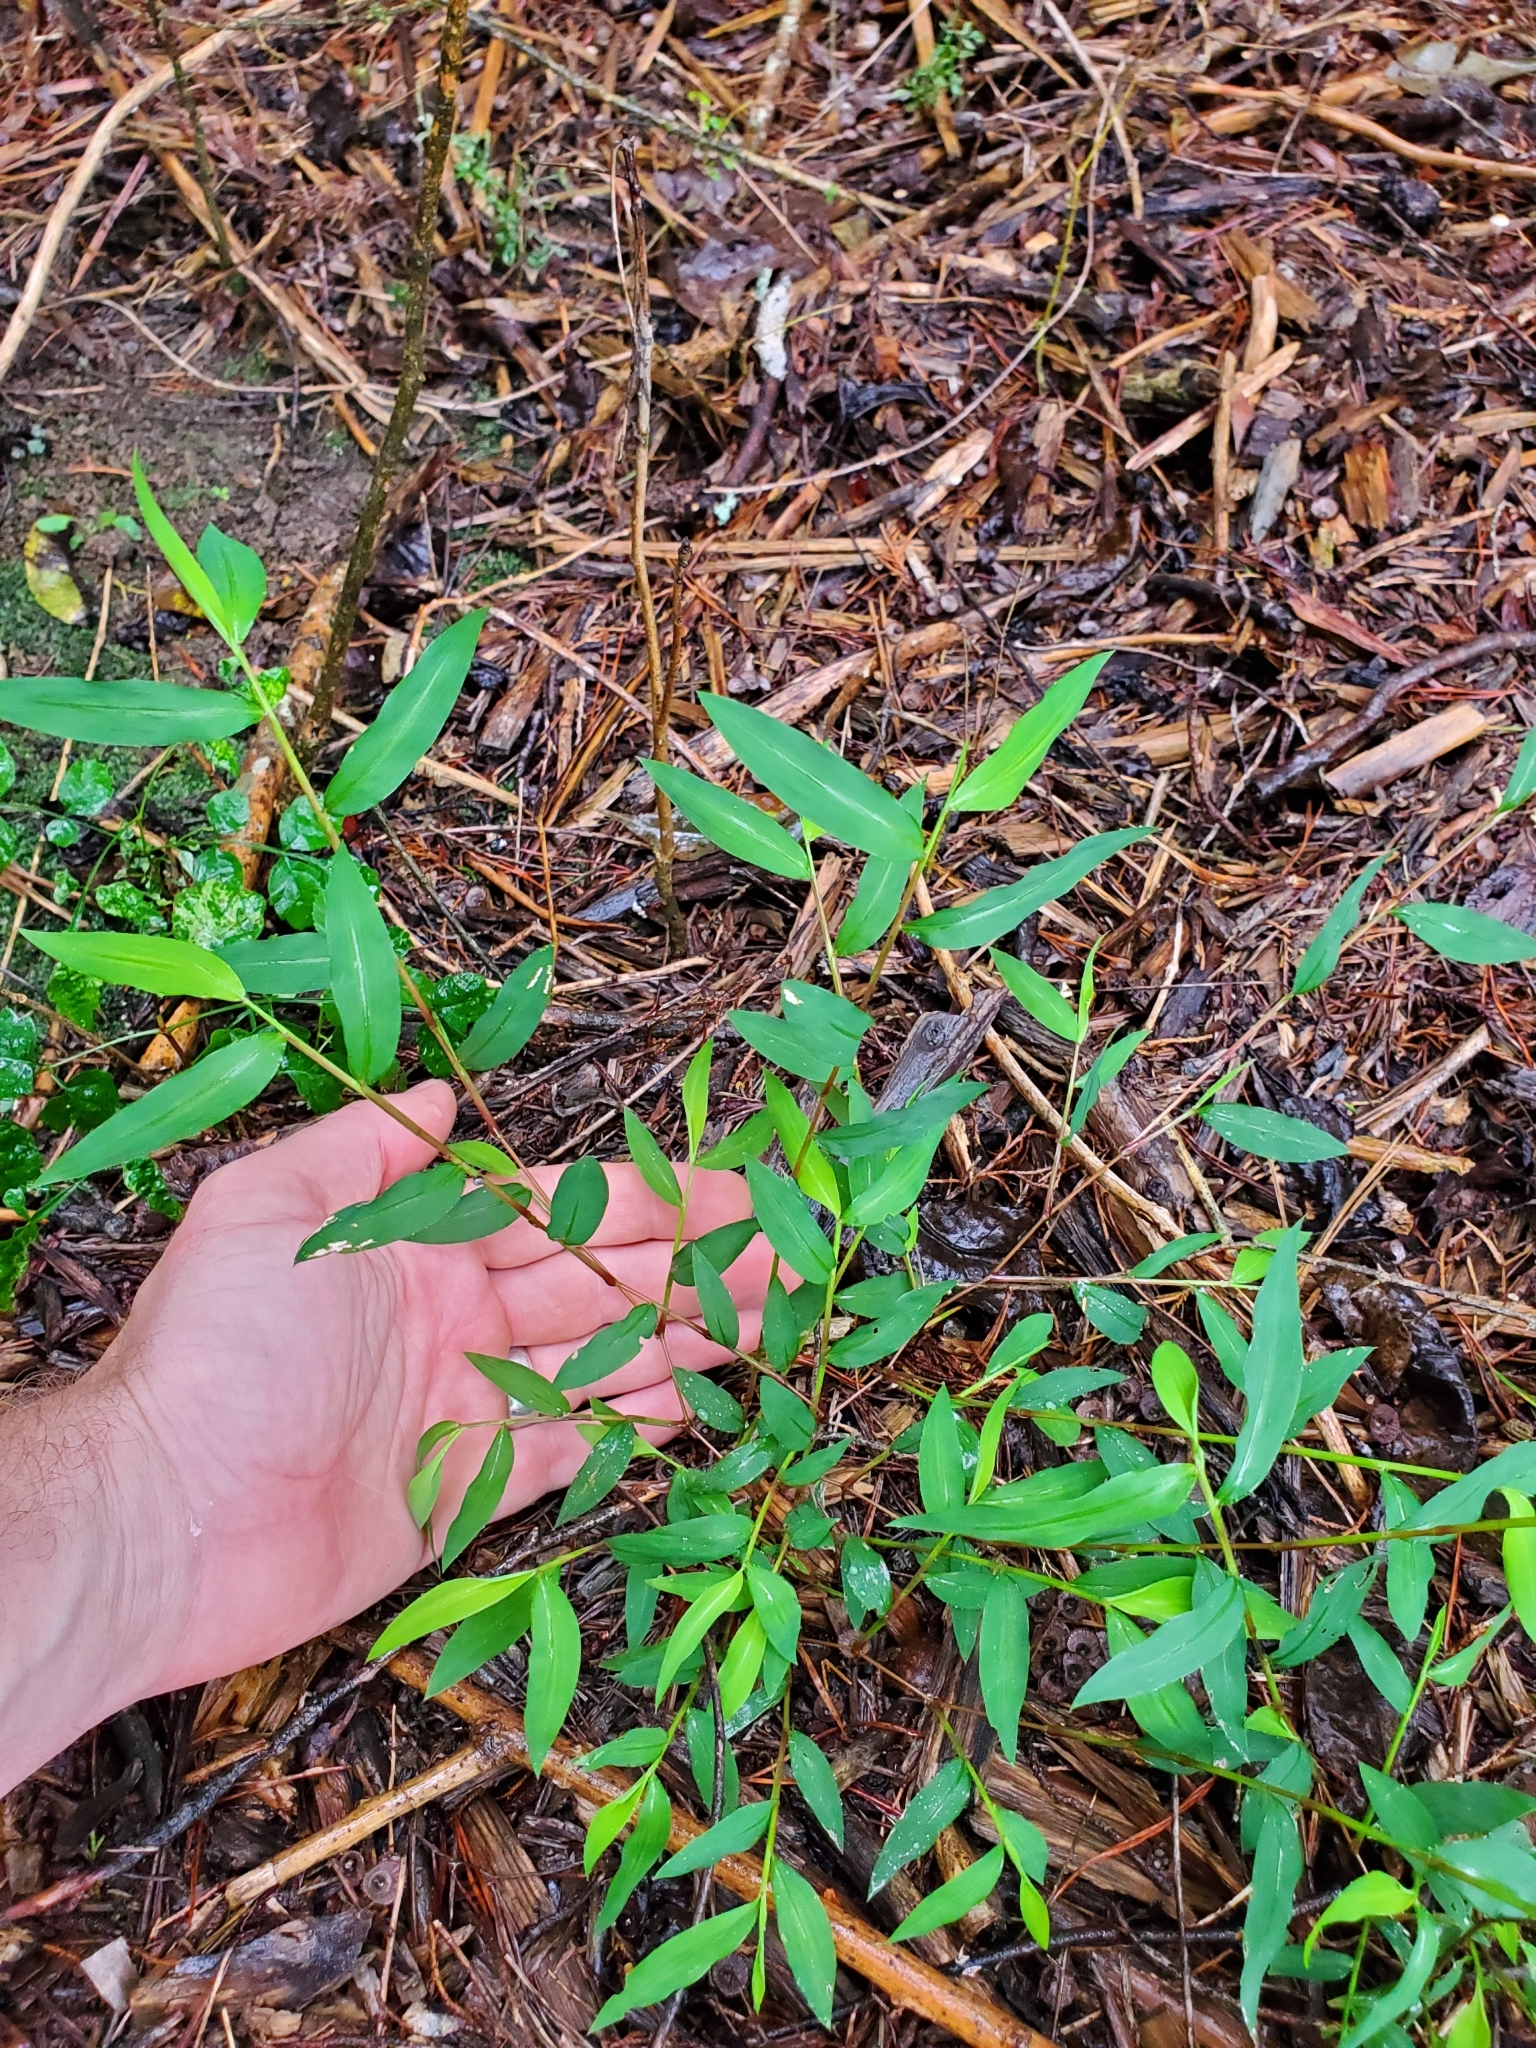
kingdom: Plantae
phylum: Tracheophyta
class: Liliopsida
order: Poales
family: Poaceae
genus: Microstegium
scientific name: Microstegium vimineum
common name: Japanese stiltgrass
